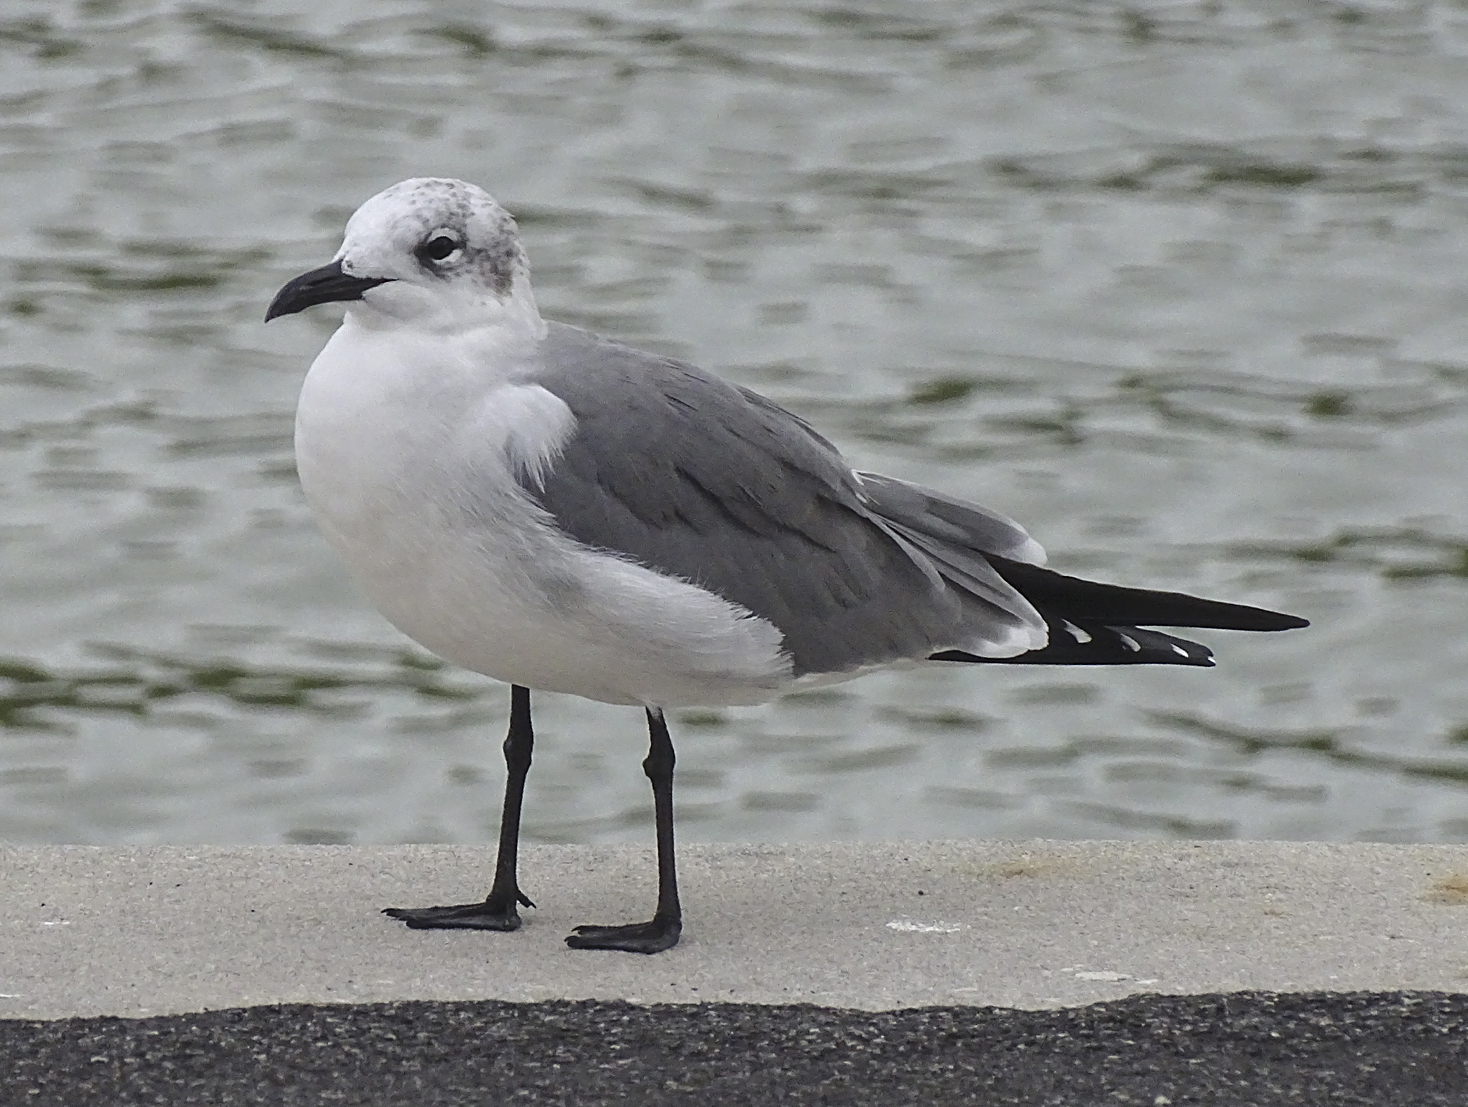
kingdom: Animalia
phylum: Chordata
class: Aves
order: Charadriiformes
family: Laridae
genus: Leucophaeus
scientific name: Leucophaeus atricilla
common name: Laughing gull
